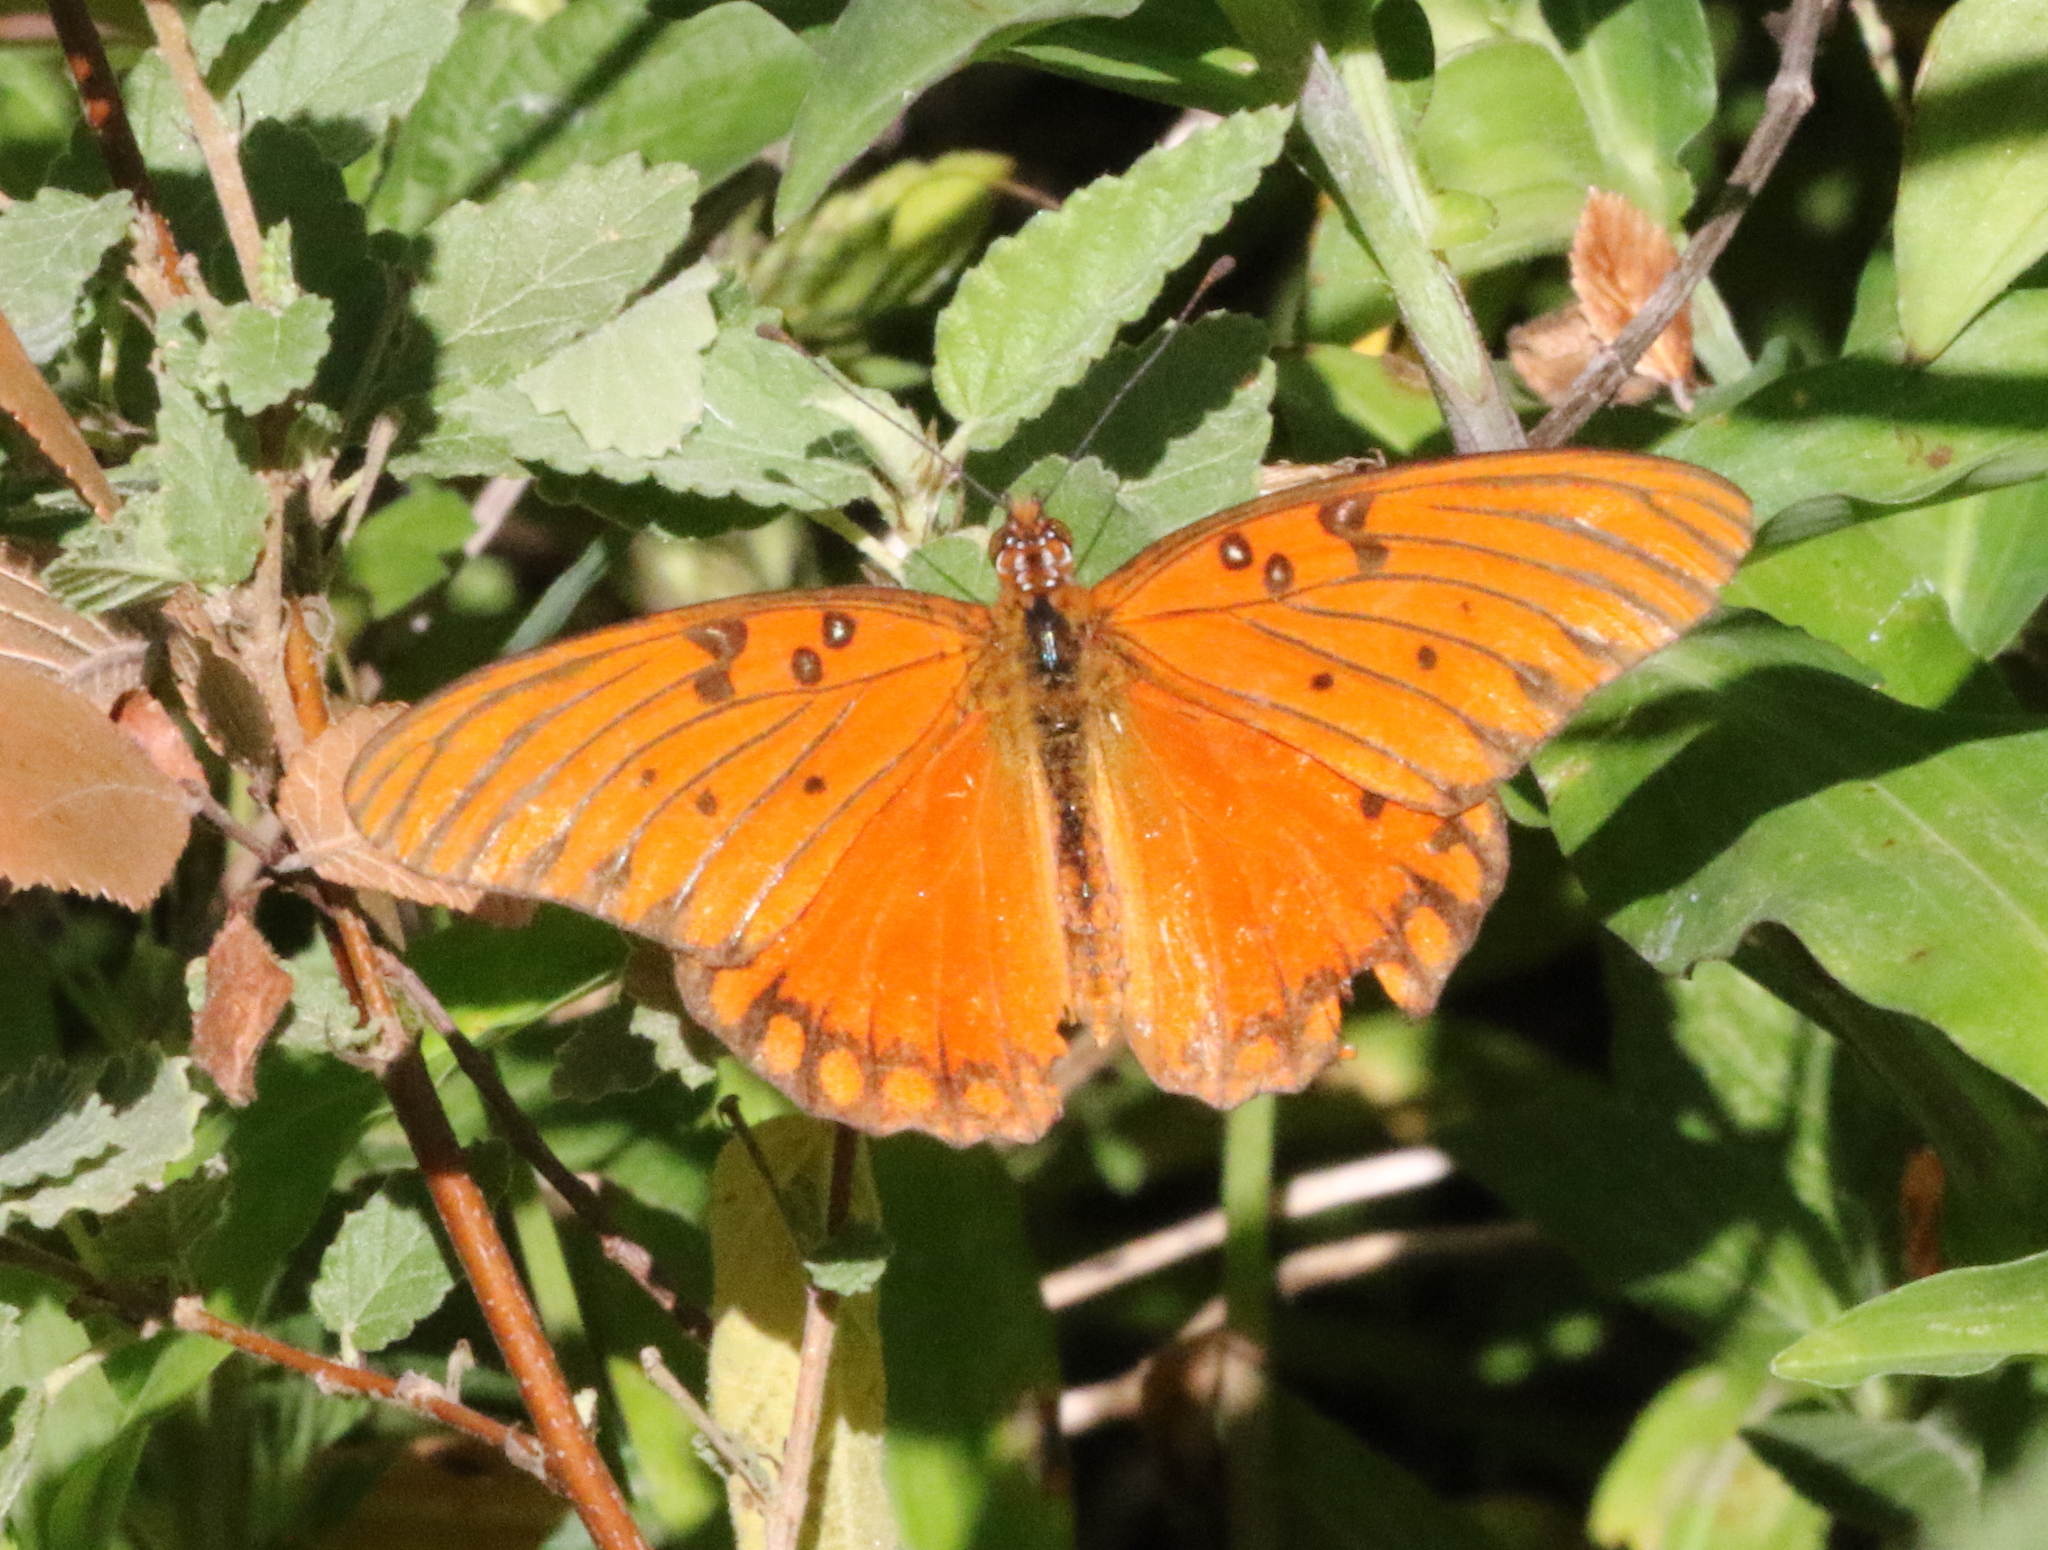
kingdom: Animalia
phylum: Arthropoda
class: Insecta
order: Lepidoptera
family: Nymphalidae
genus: Dione
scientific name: Dione vanillae
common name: Gulf fritillary
